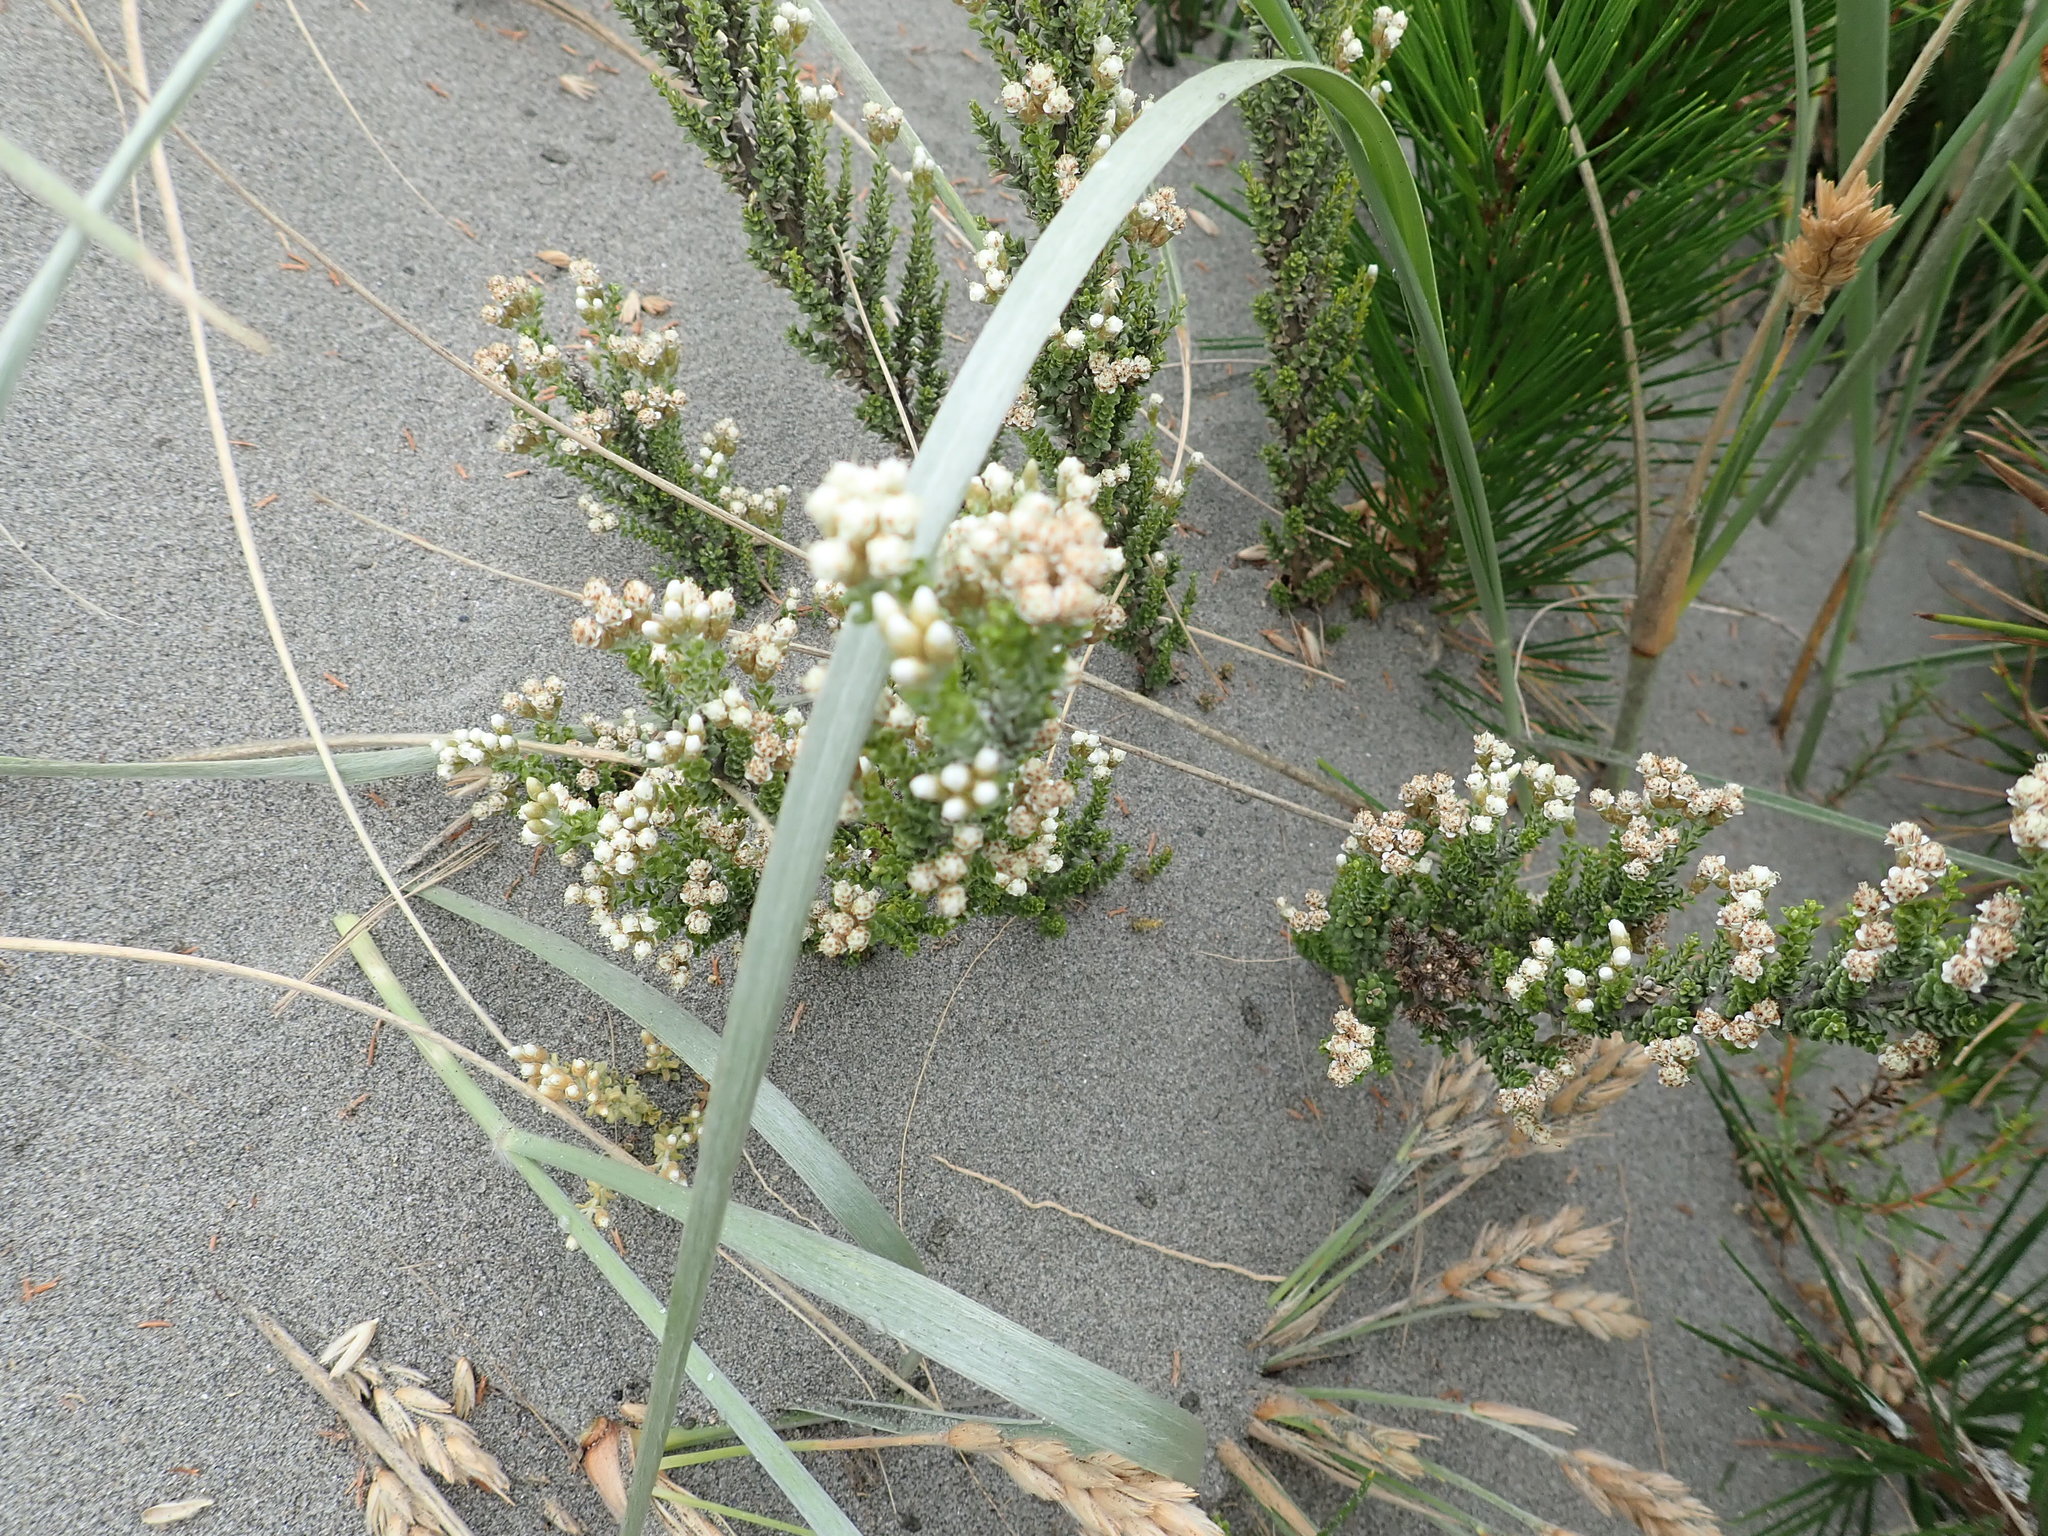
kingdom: Plantae
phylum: Tracheophyta
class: Magnoliopsida
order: Asterales
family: Asteraceae
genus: Ozothamnus
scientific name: Ozothamnus leptophyllus
